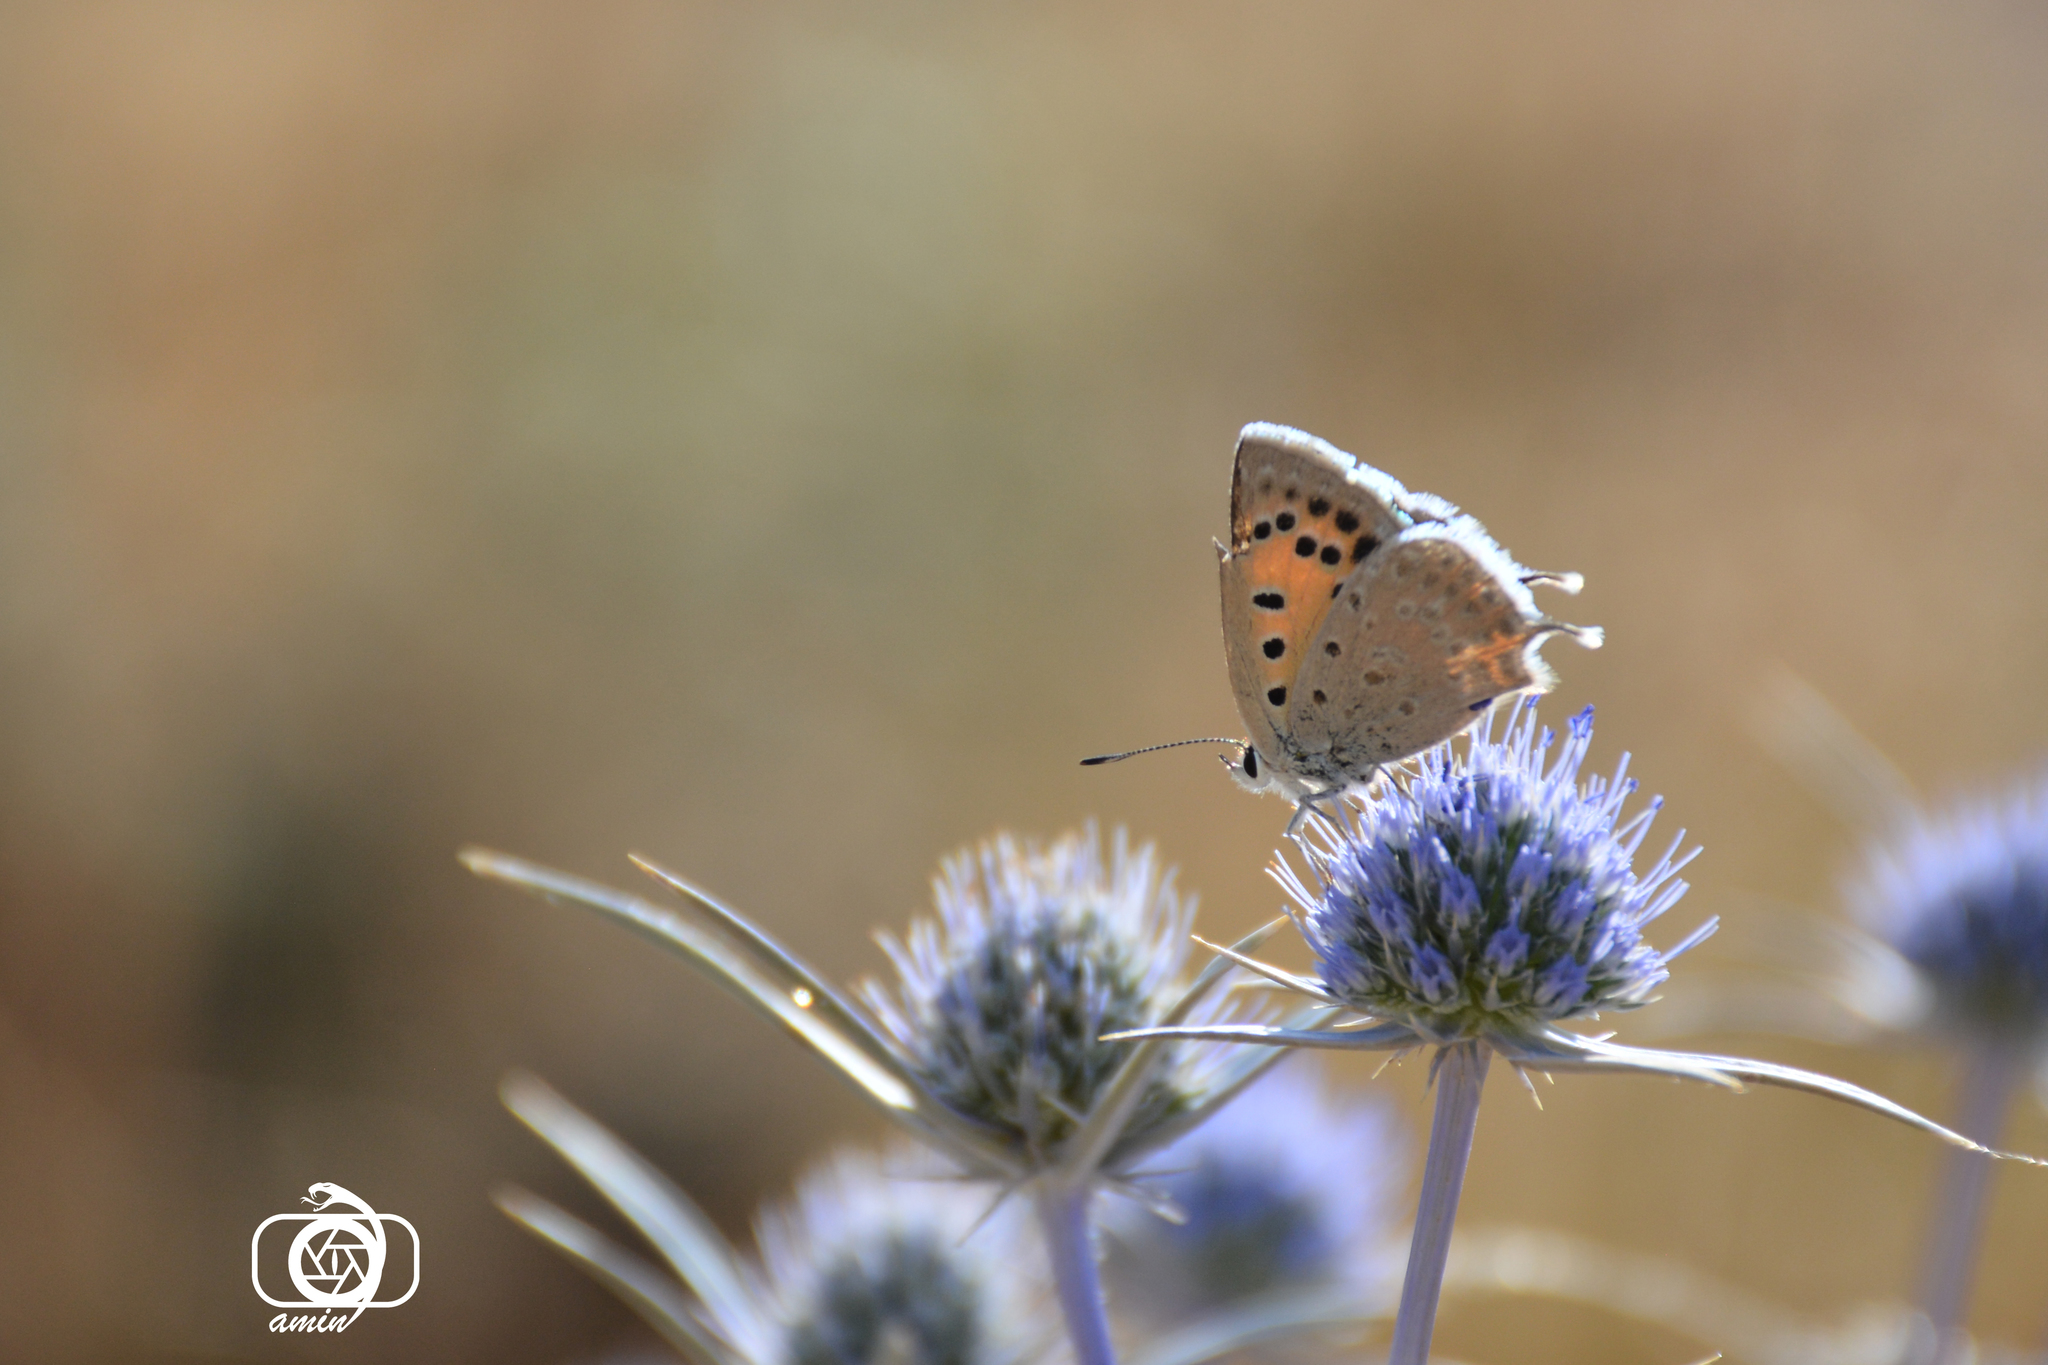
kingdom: Animalia
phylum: Arthropoda
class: Insecta
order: Lepidoptera
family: Lycaenidae
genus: Lycaena
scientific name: Lycaena thetis
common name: Fiery copper
